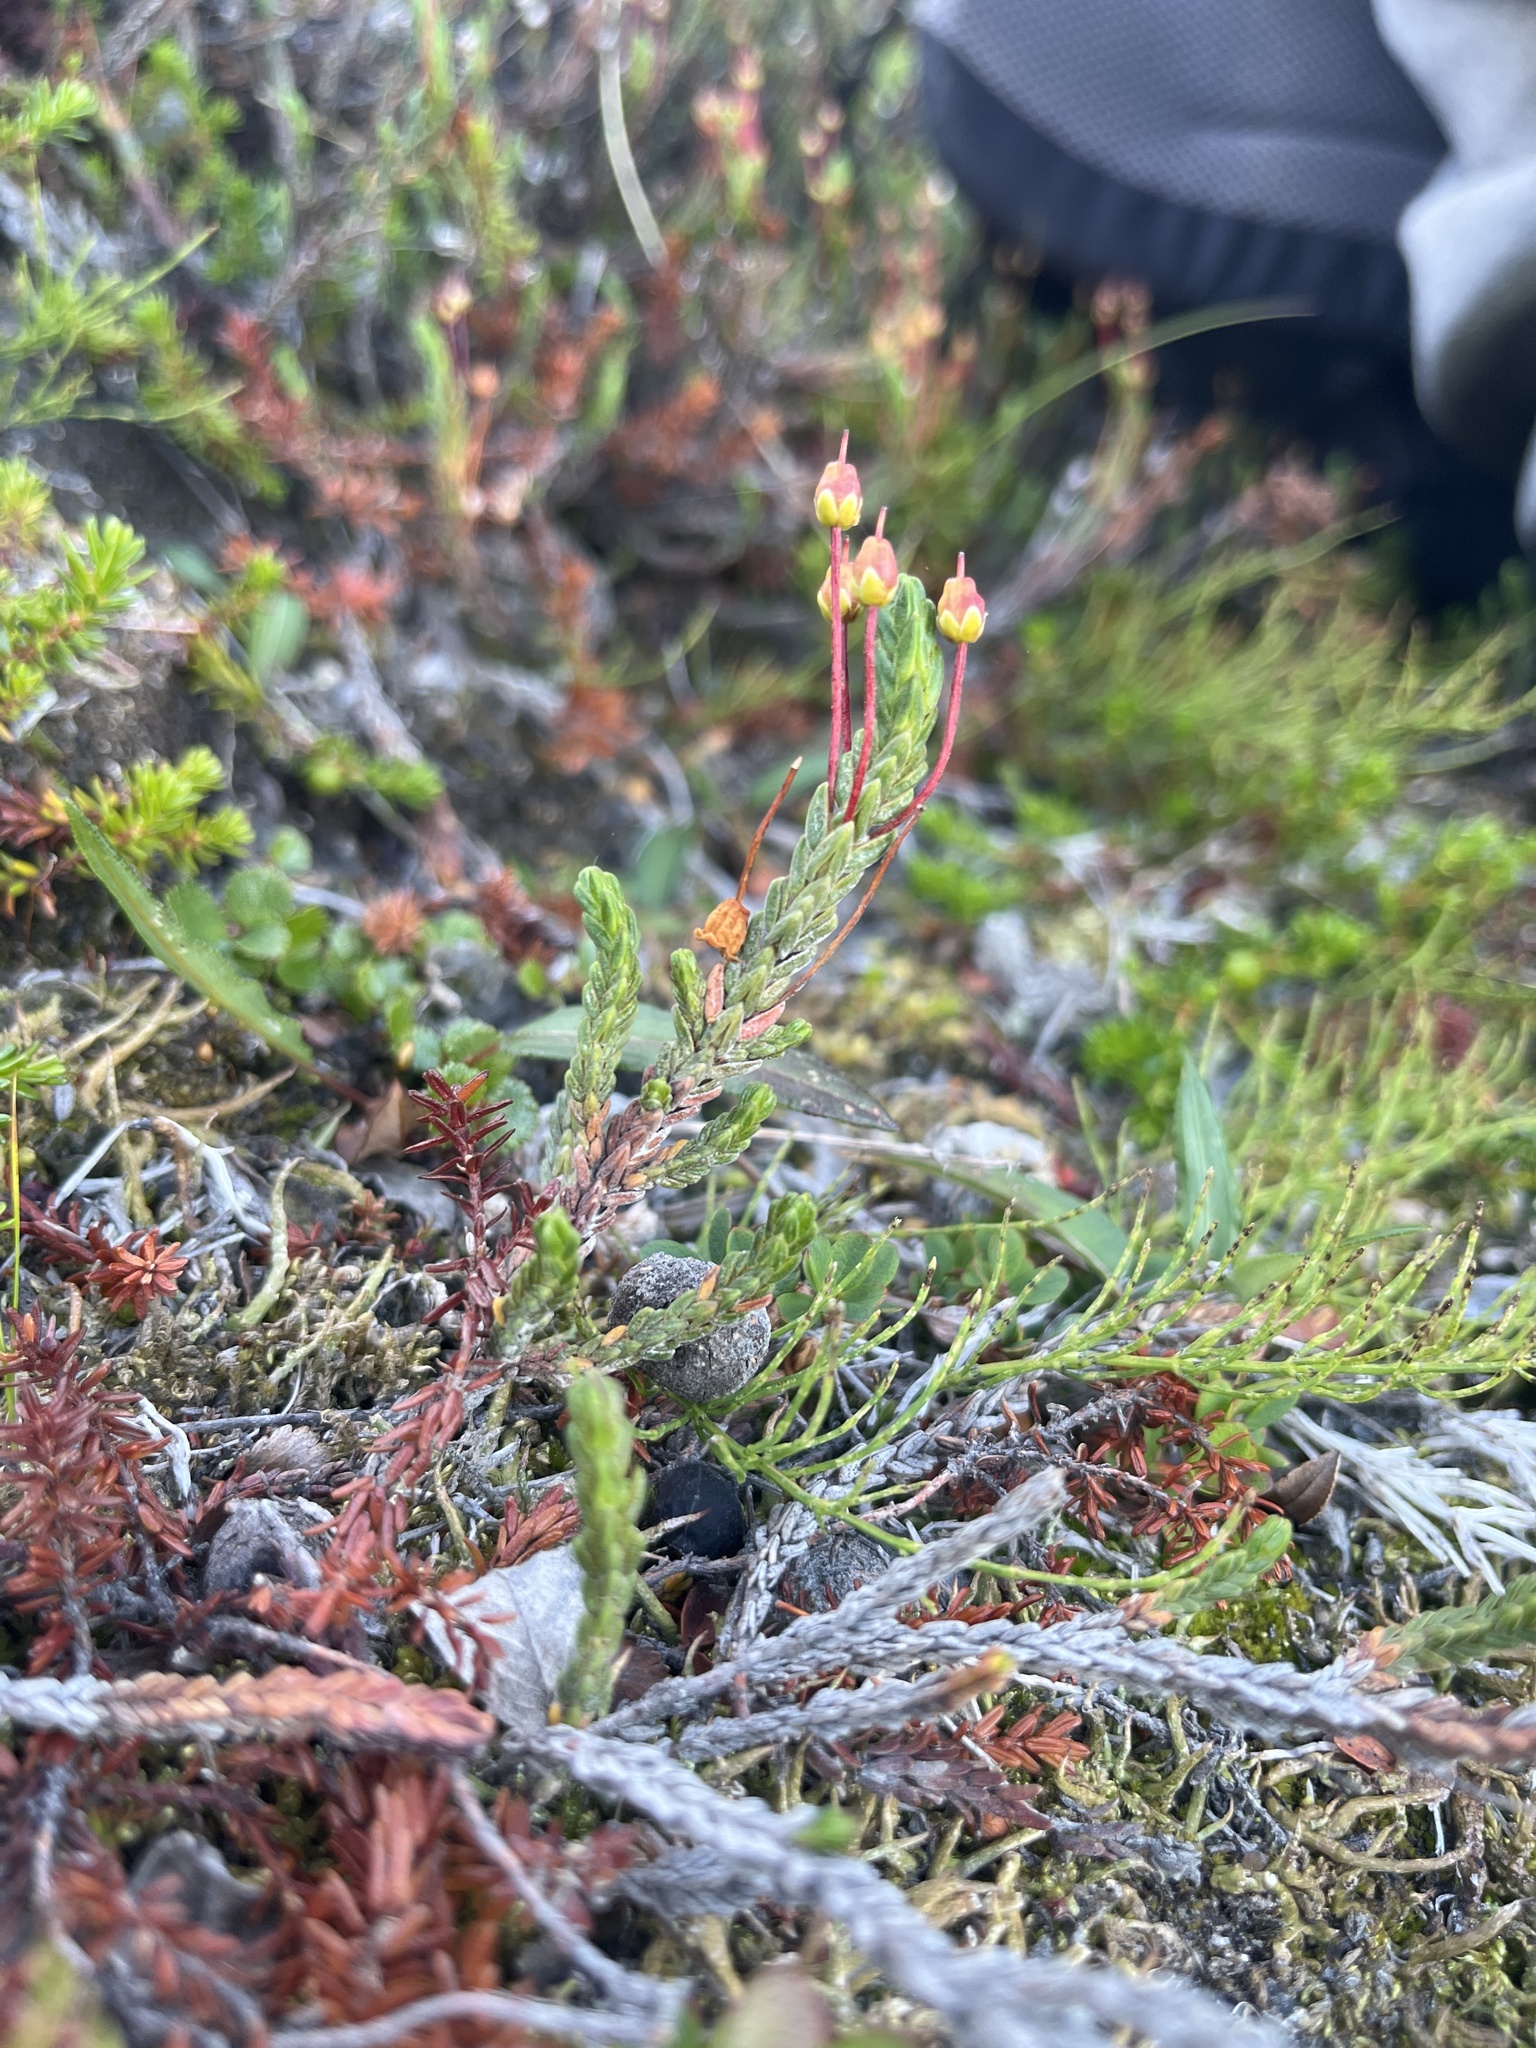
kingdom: Plantae
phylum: Tracheophyta
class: Magnoliopsida
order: Ericales
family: Ericaceae
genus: Cassiope
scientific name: Cassiope tetragona
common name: Arctic bell heather
